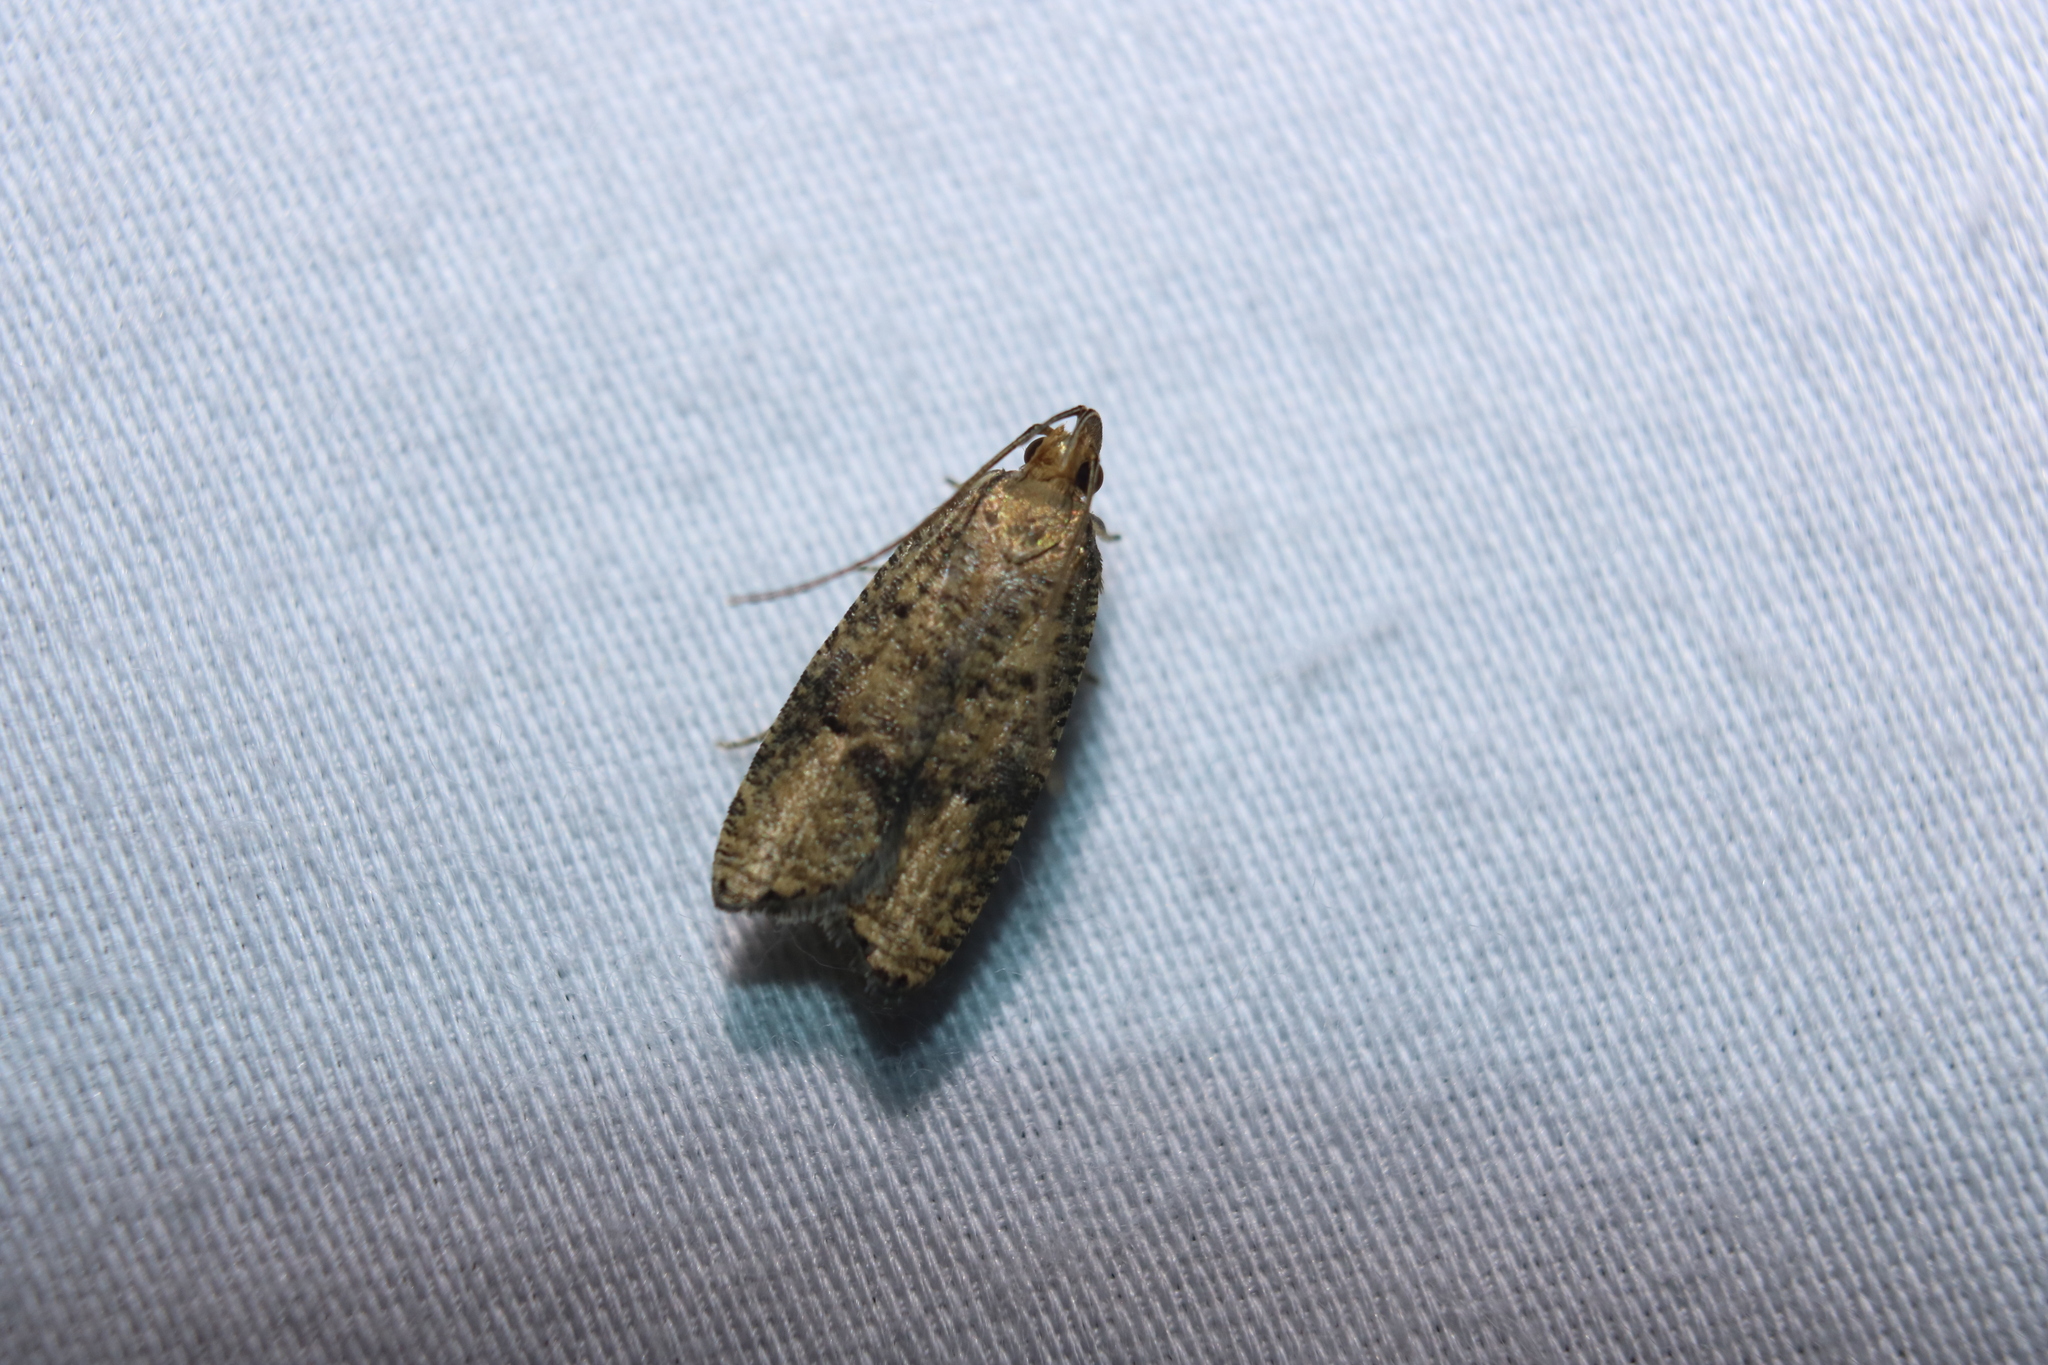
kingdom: Animalia
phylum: Arthropoda
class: Insecta
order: Lepidoptera
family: Depressariidae
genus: Psilocorsis
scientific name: Psilocorsis quercicella
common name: Oak leaftier moth
